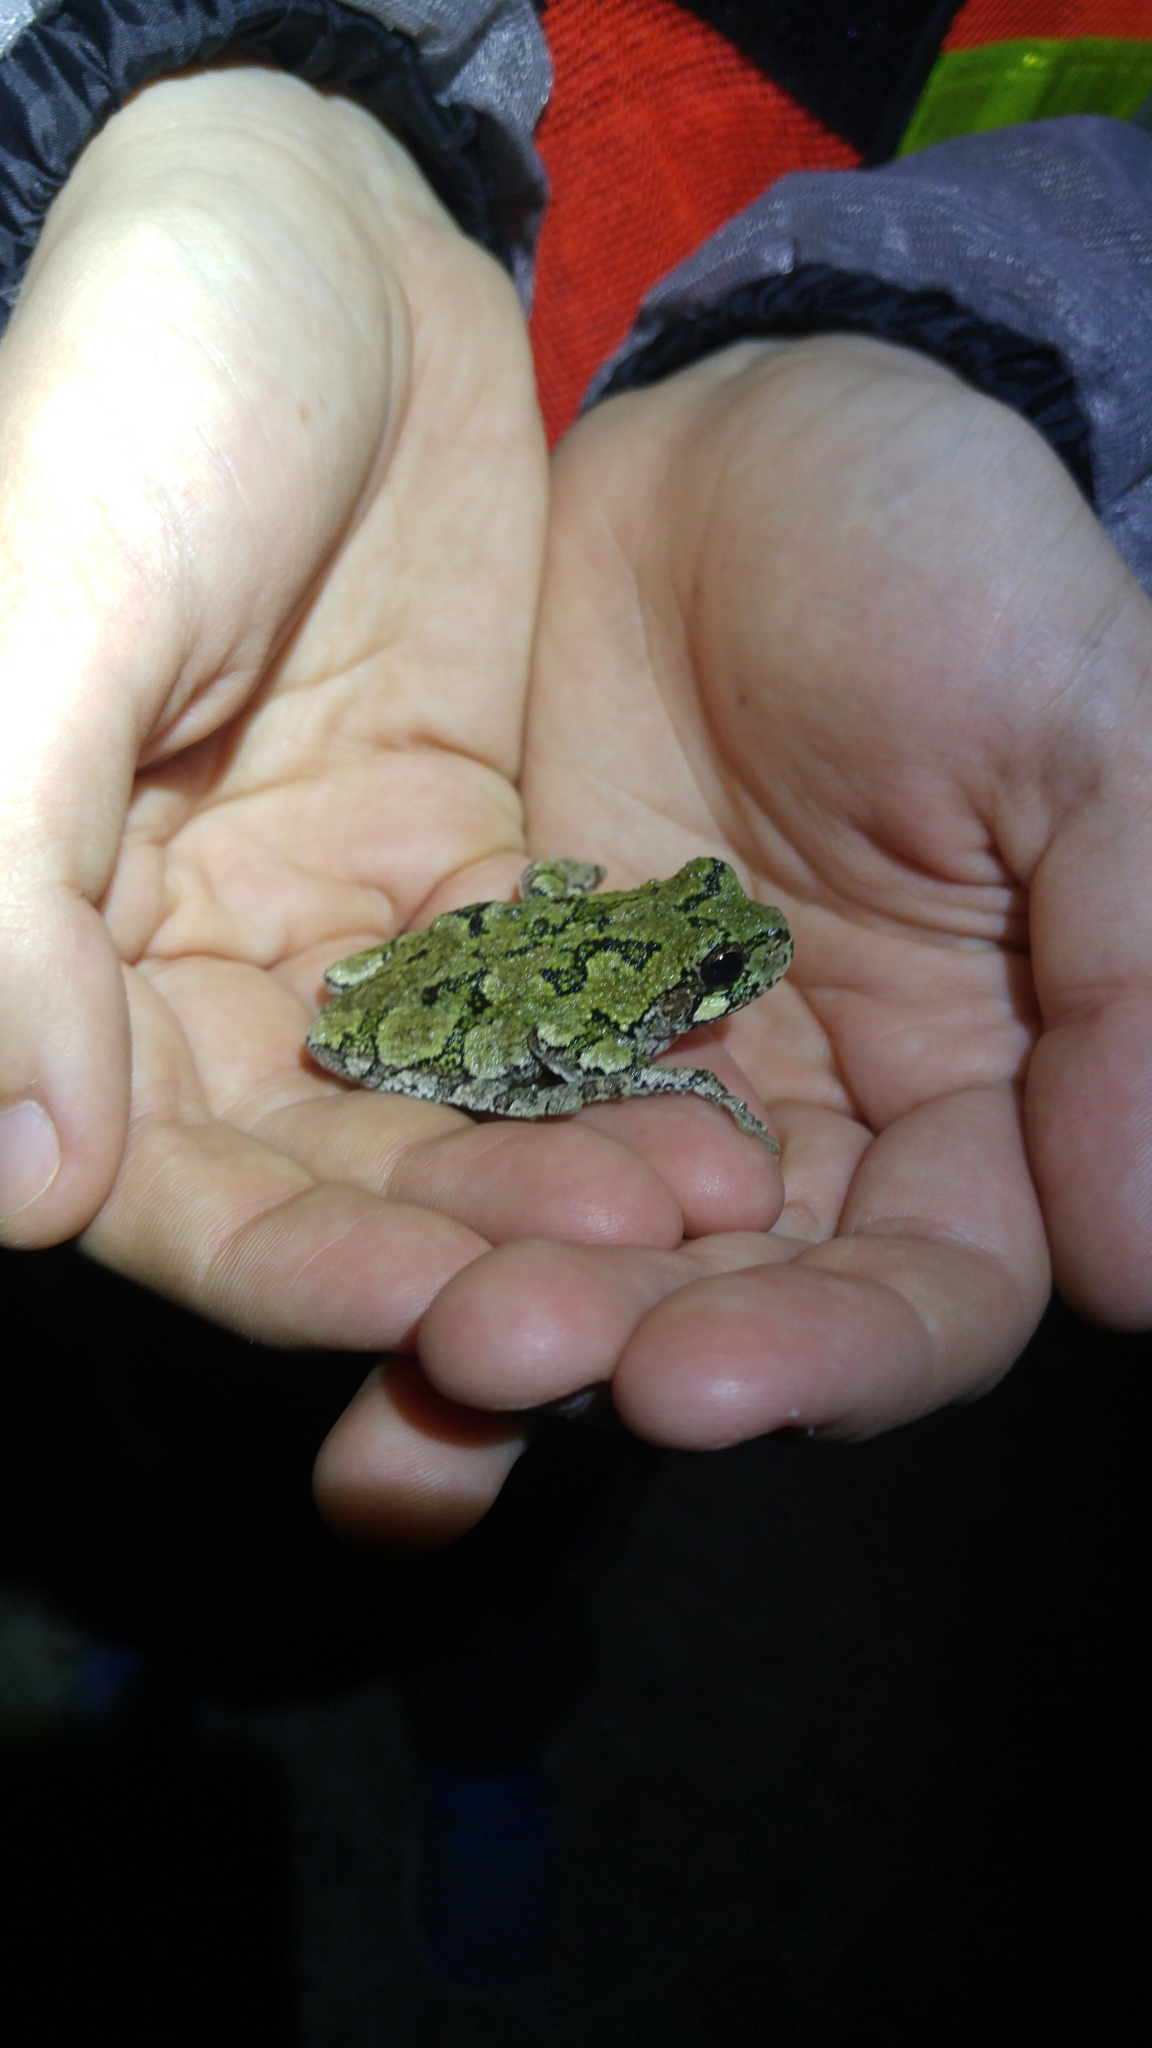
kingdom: Animalia
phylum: Chordata
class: Amphibia
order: Anura
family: Hylidae
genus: Dryophytes
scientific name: Dryophytes versicolor
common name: Gray treefrog
